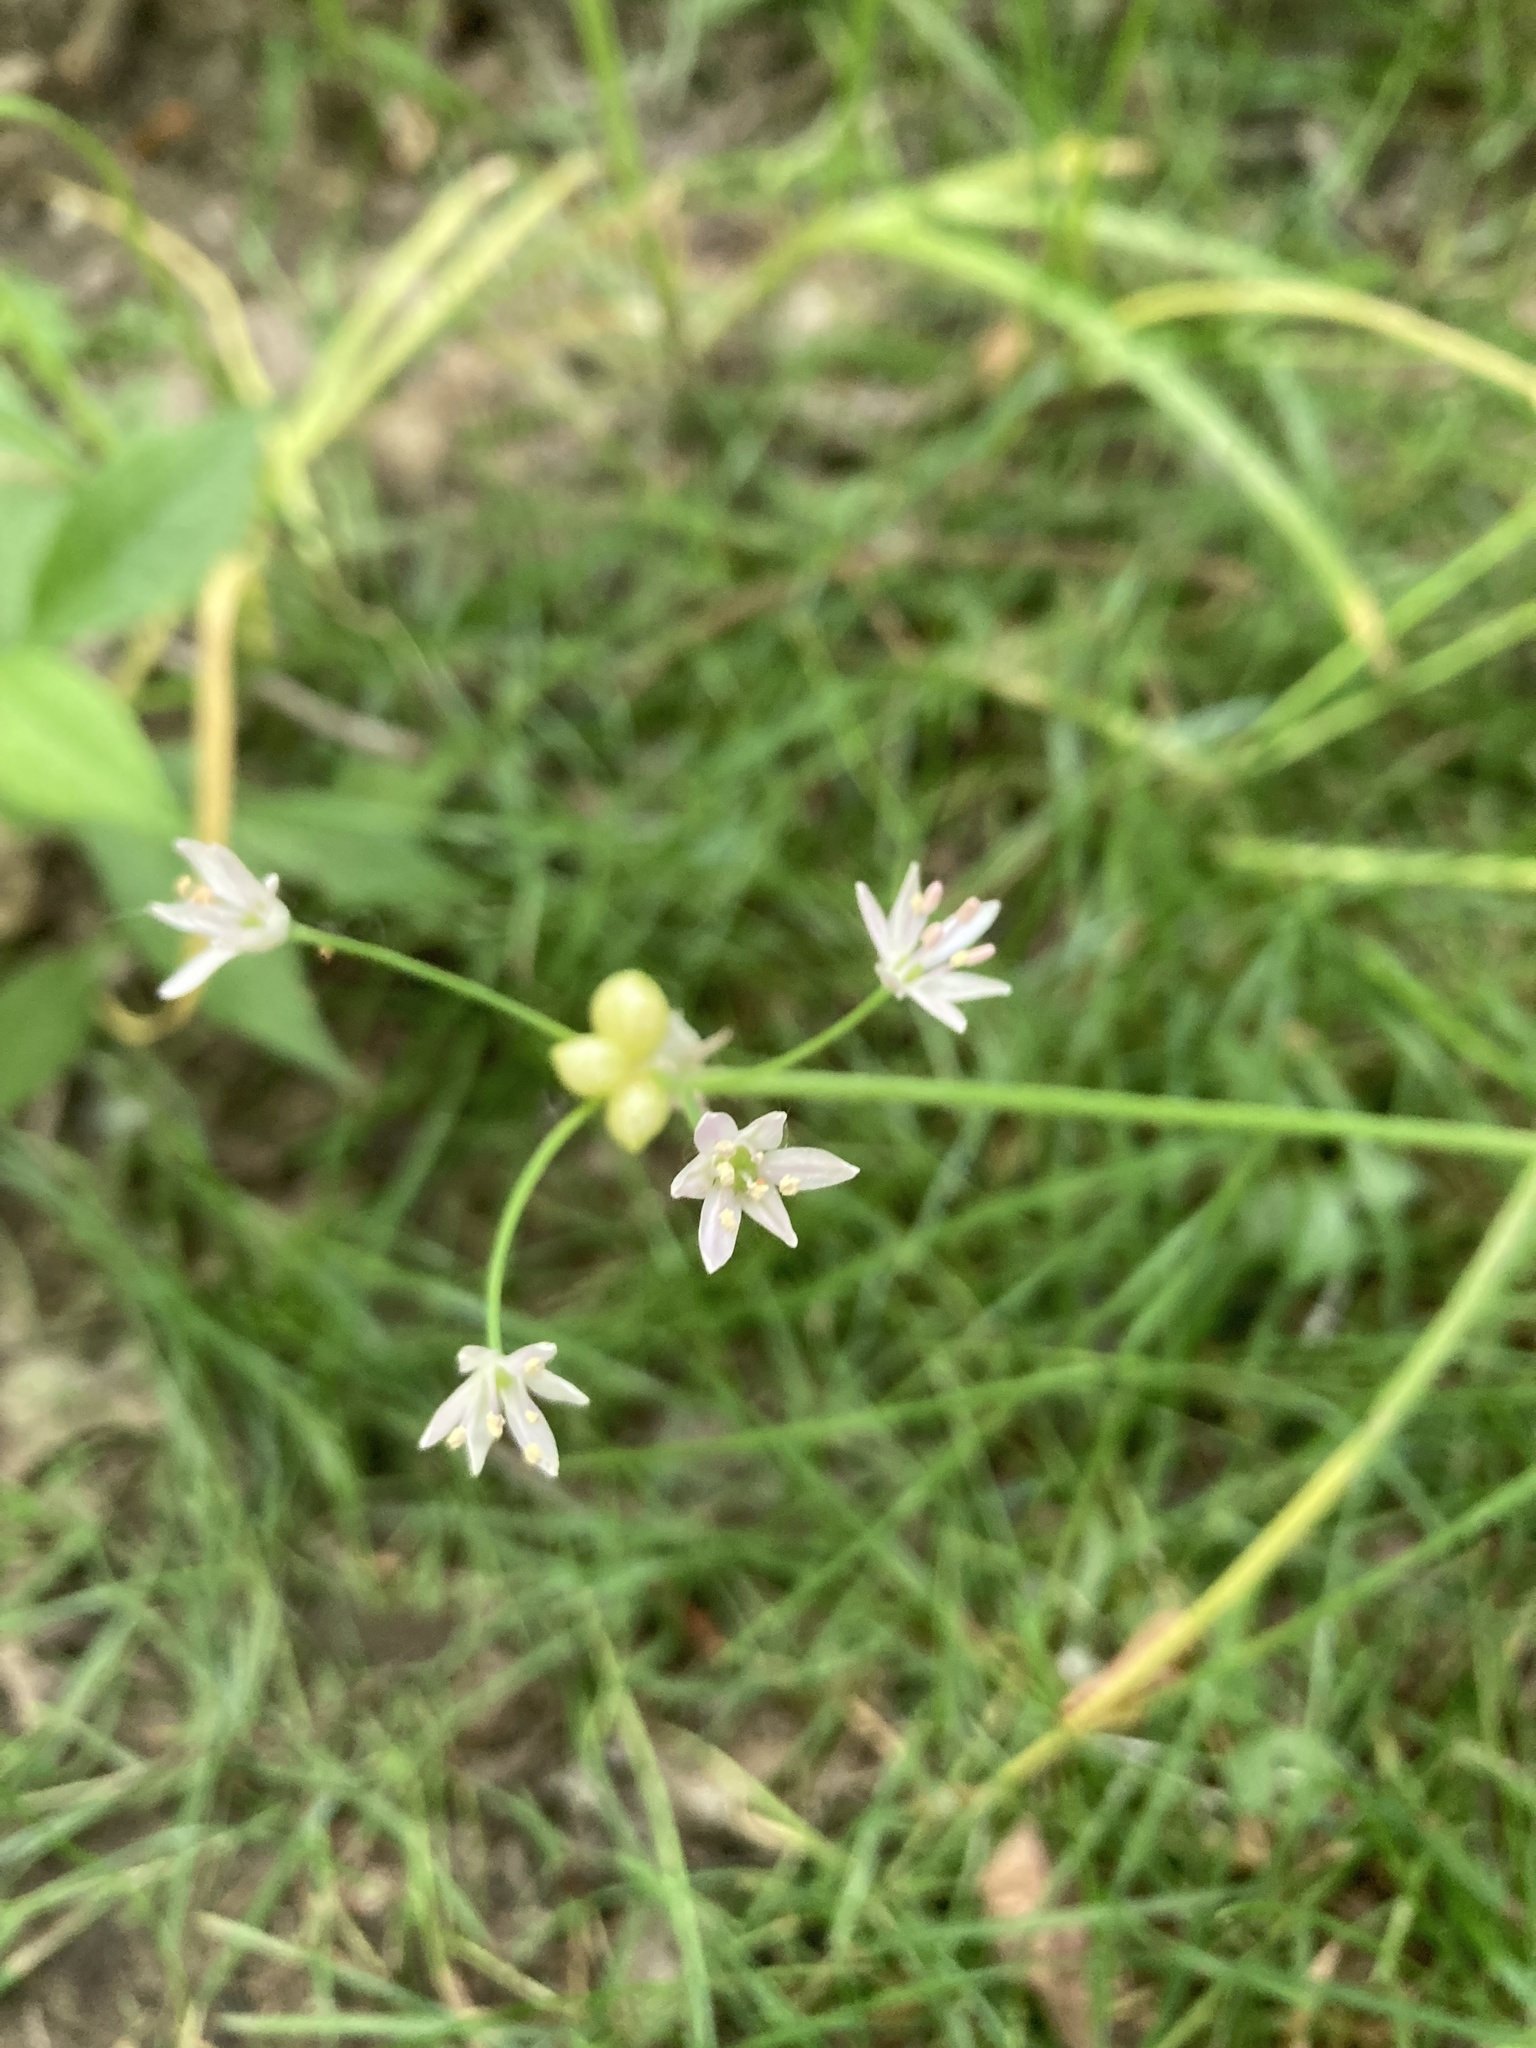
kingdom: Plantae
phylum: Tracheophyta
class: Liliopsida
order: Asparagales
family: Amaryllidaceae
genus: Allium
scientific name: Allium canadense
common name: Meadow garlic
